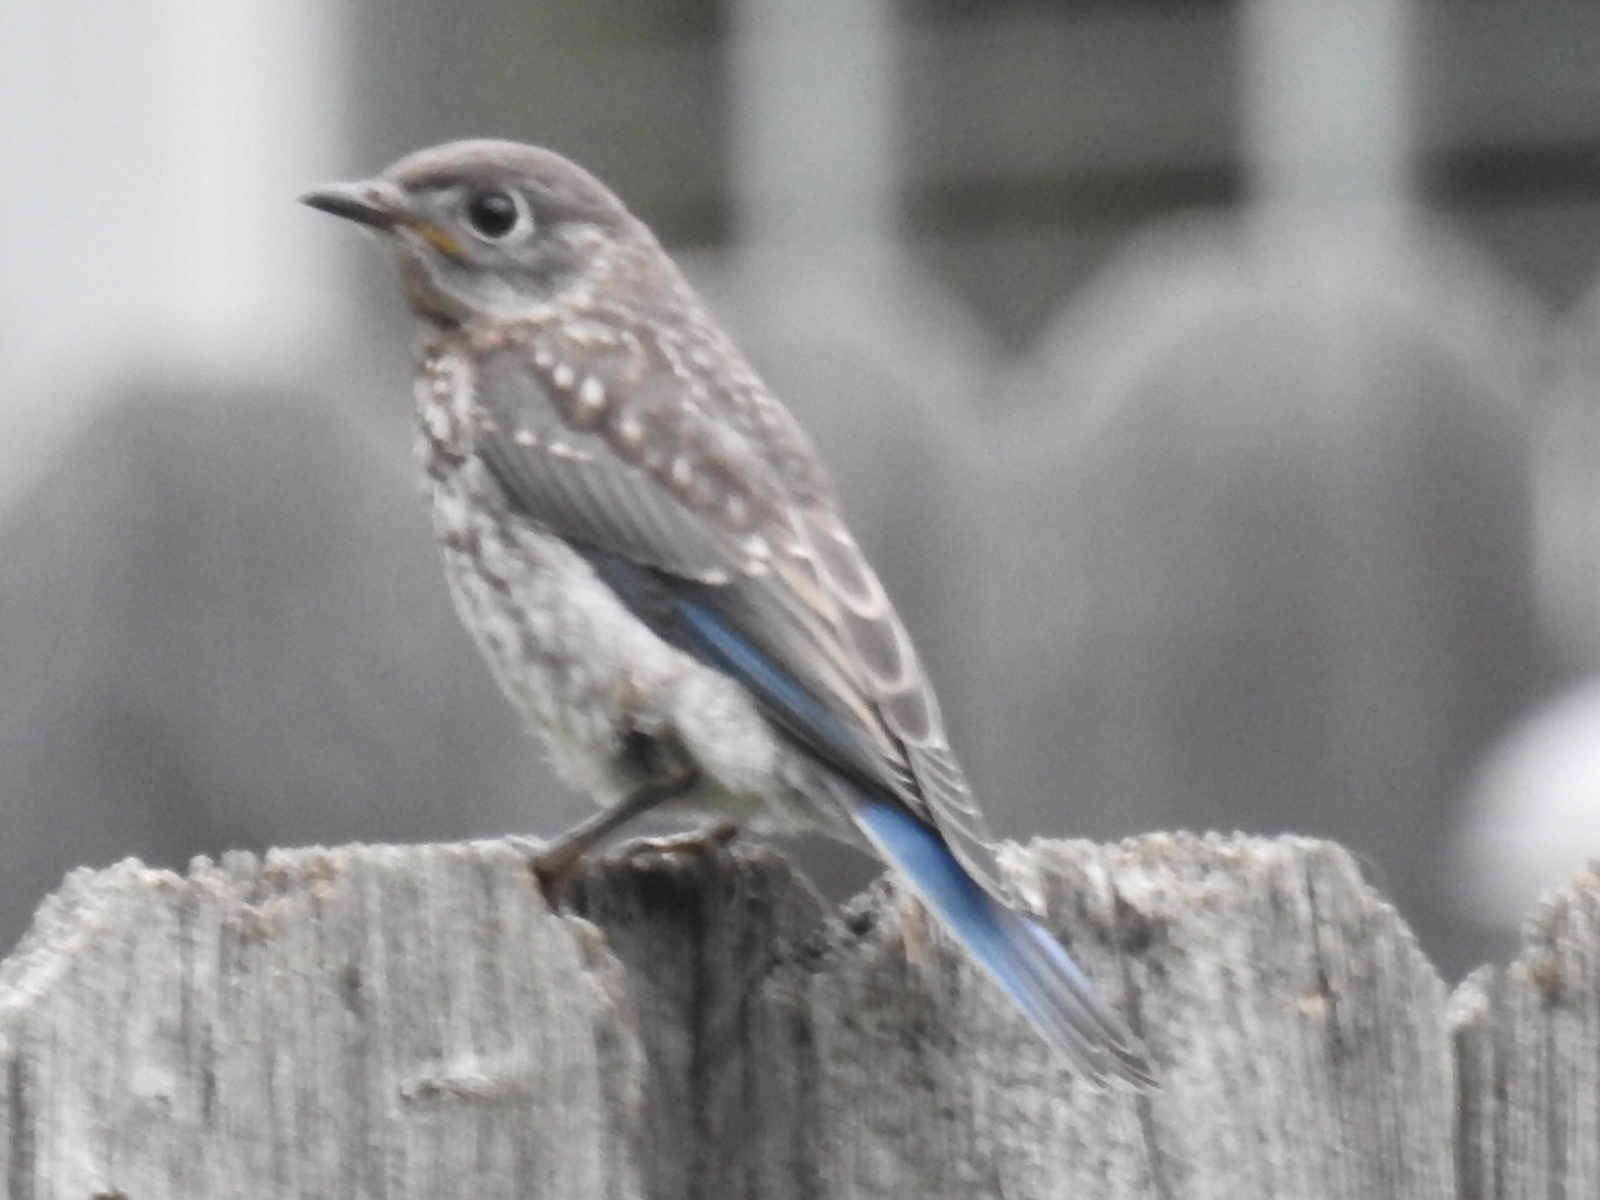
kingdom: Animalia
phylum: Chordata
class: Aves
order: Passeriformes
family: Turdidae
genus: Sialia
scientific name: Sialia sialis
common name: Eastern bluebird
